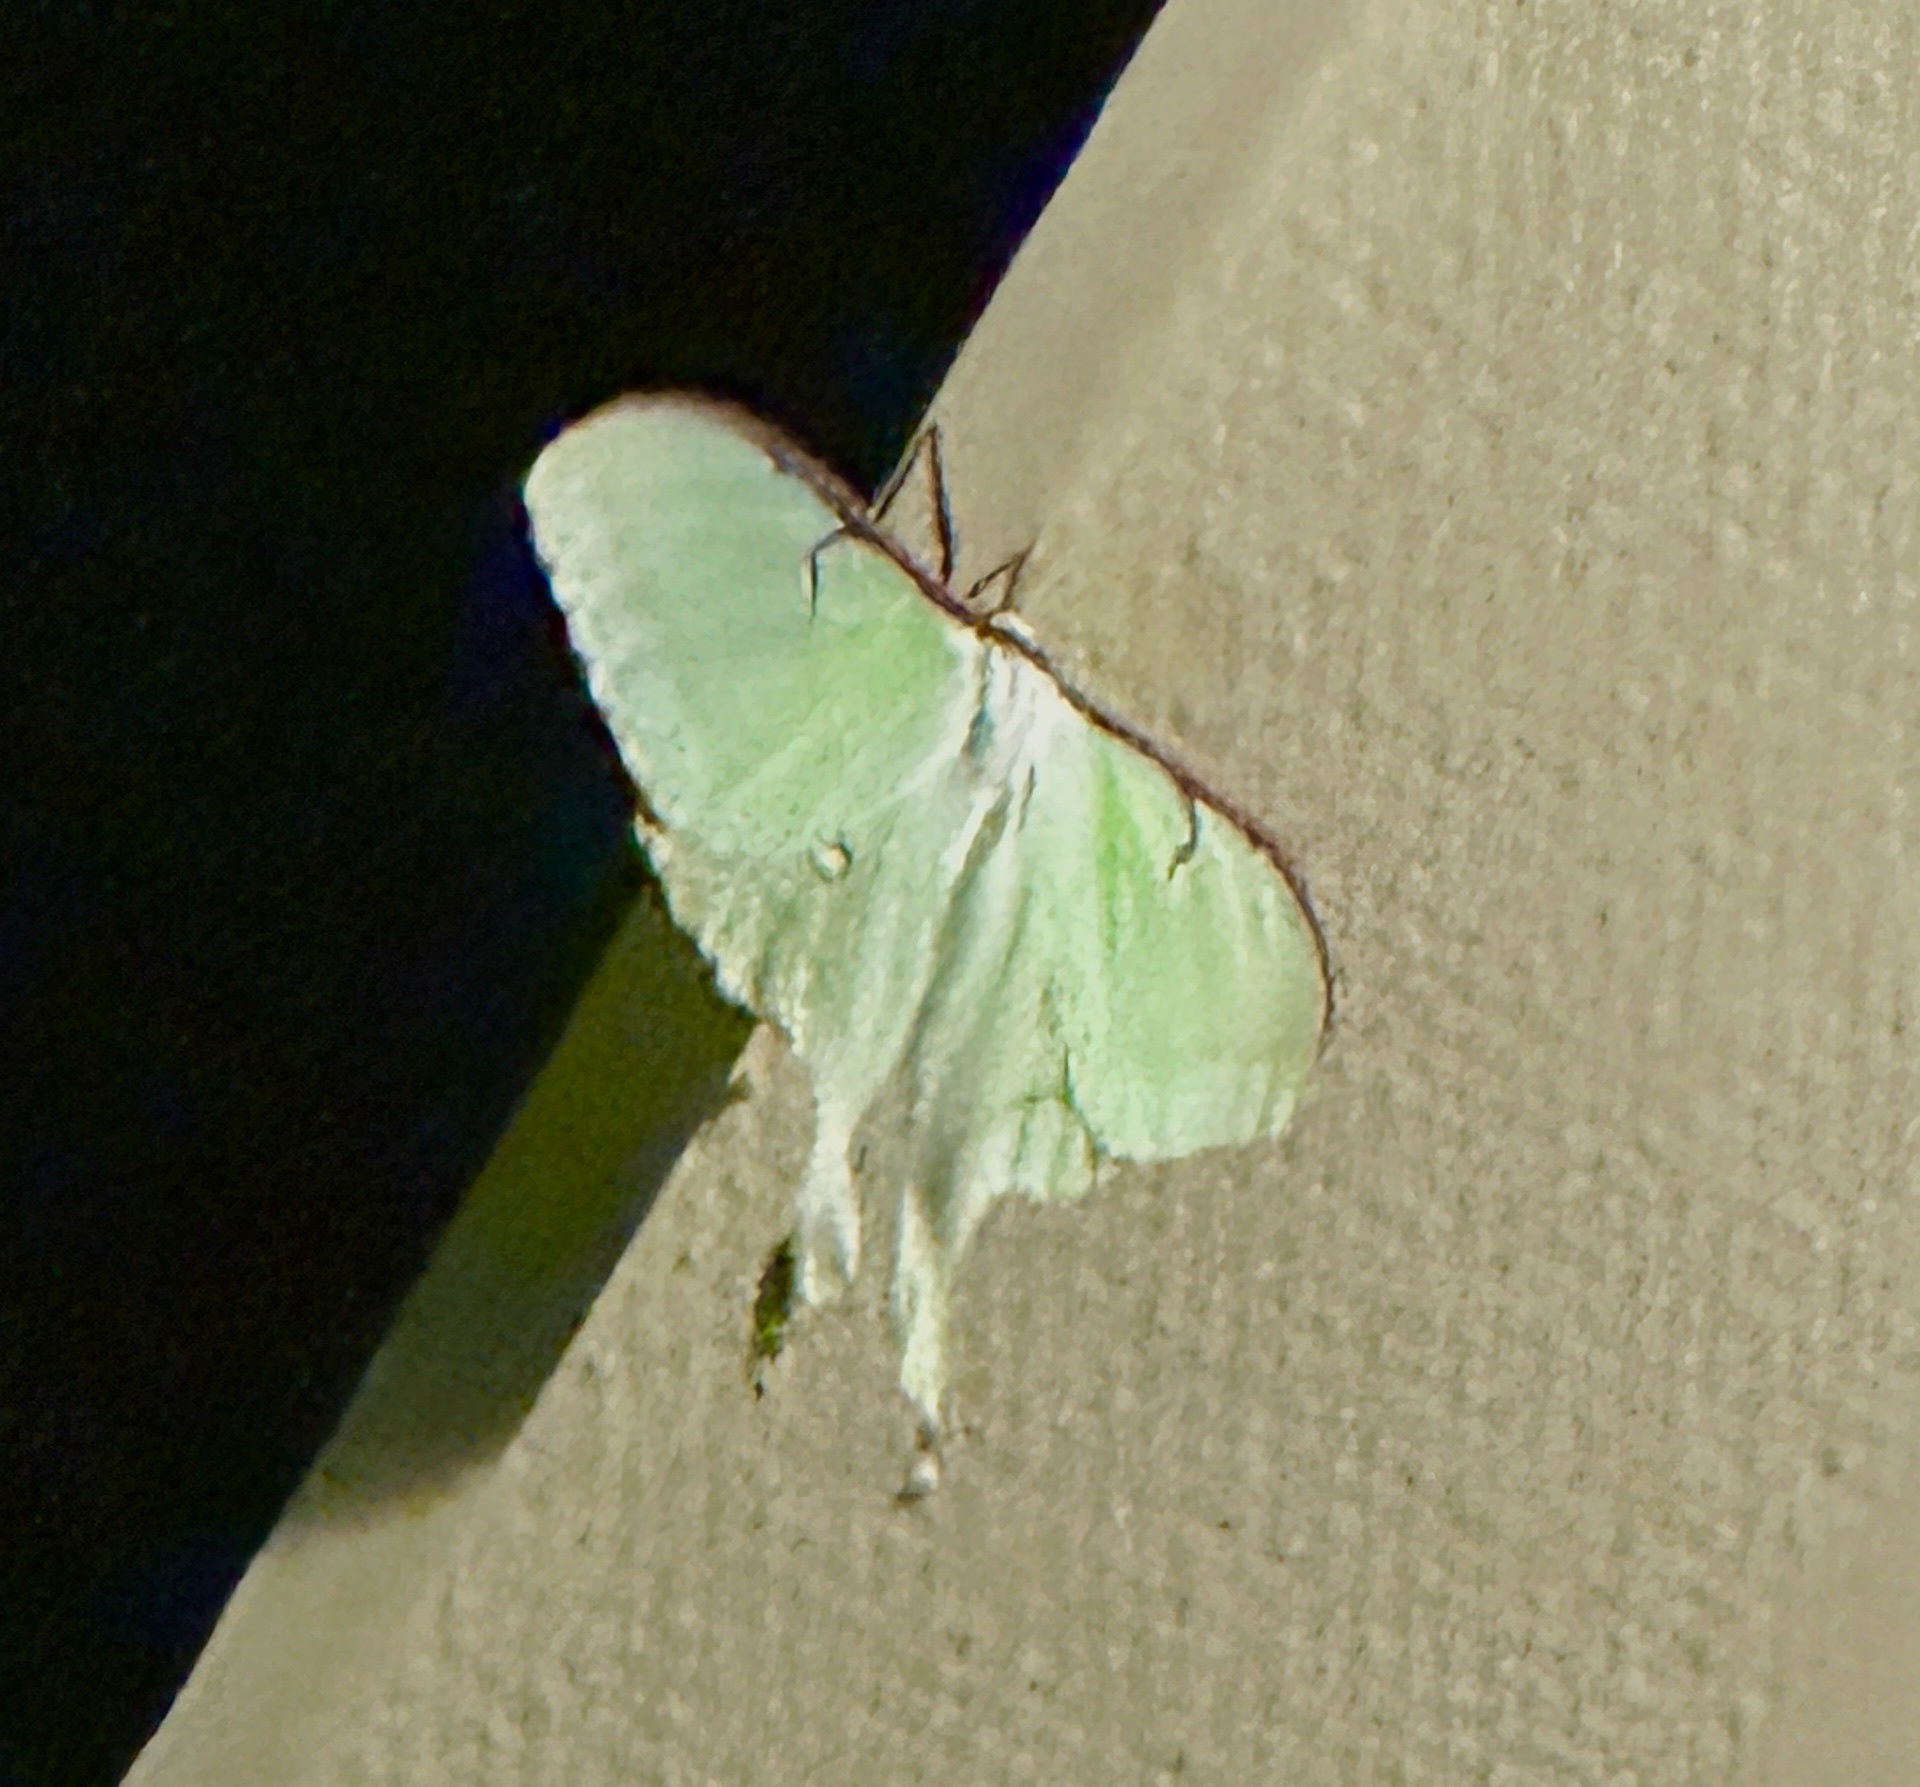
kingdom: Animalia
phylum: Arthropoda
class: Insecta
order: Lepidoptera
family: Saturniidae
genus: Actias
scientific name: Actias luna
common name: Luna moth
